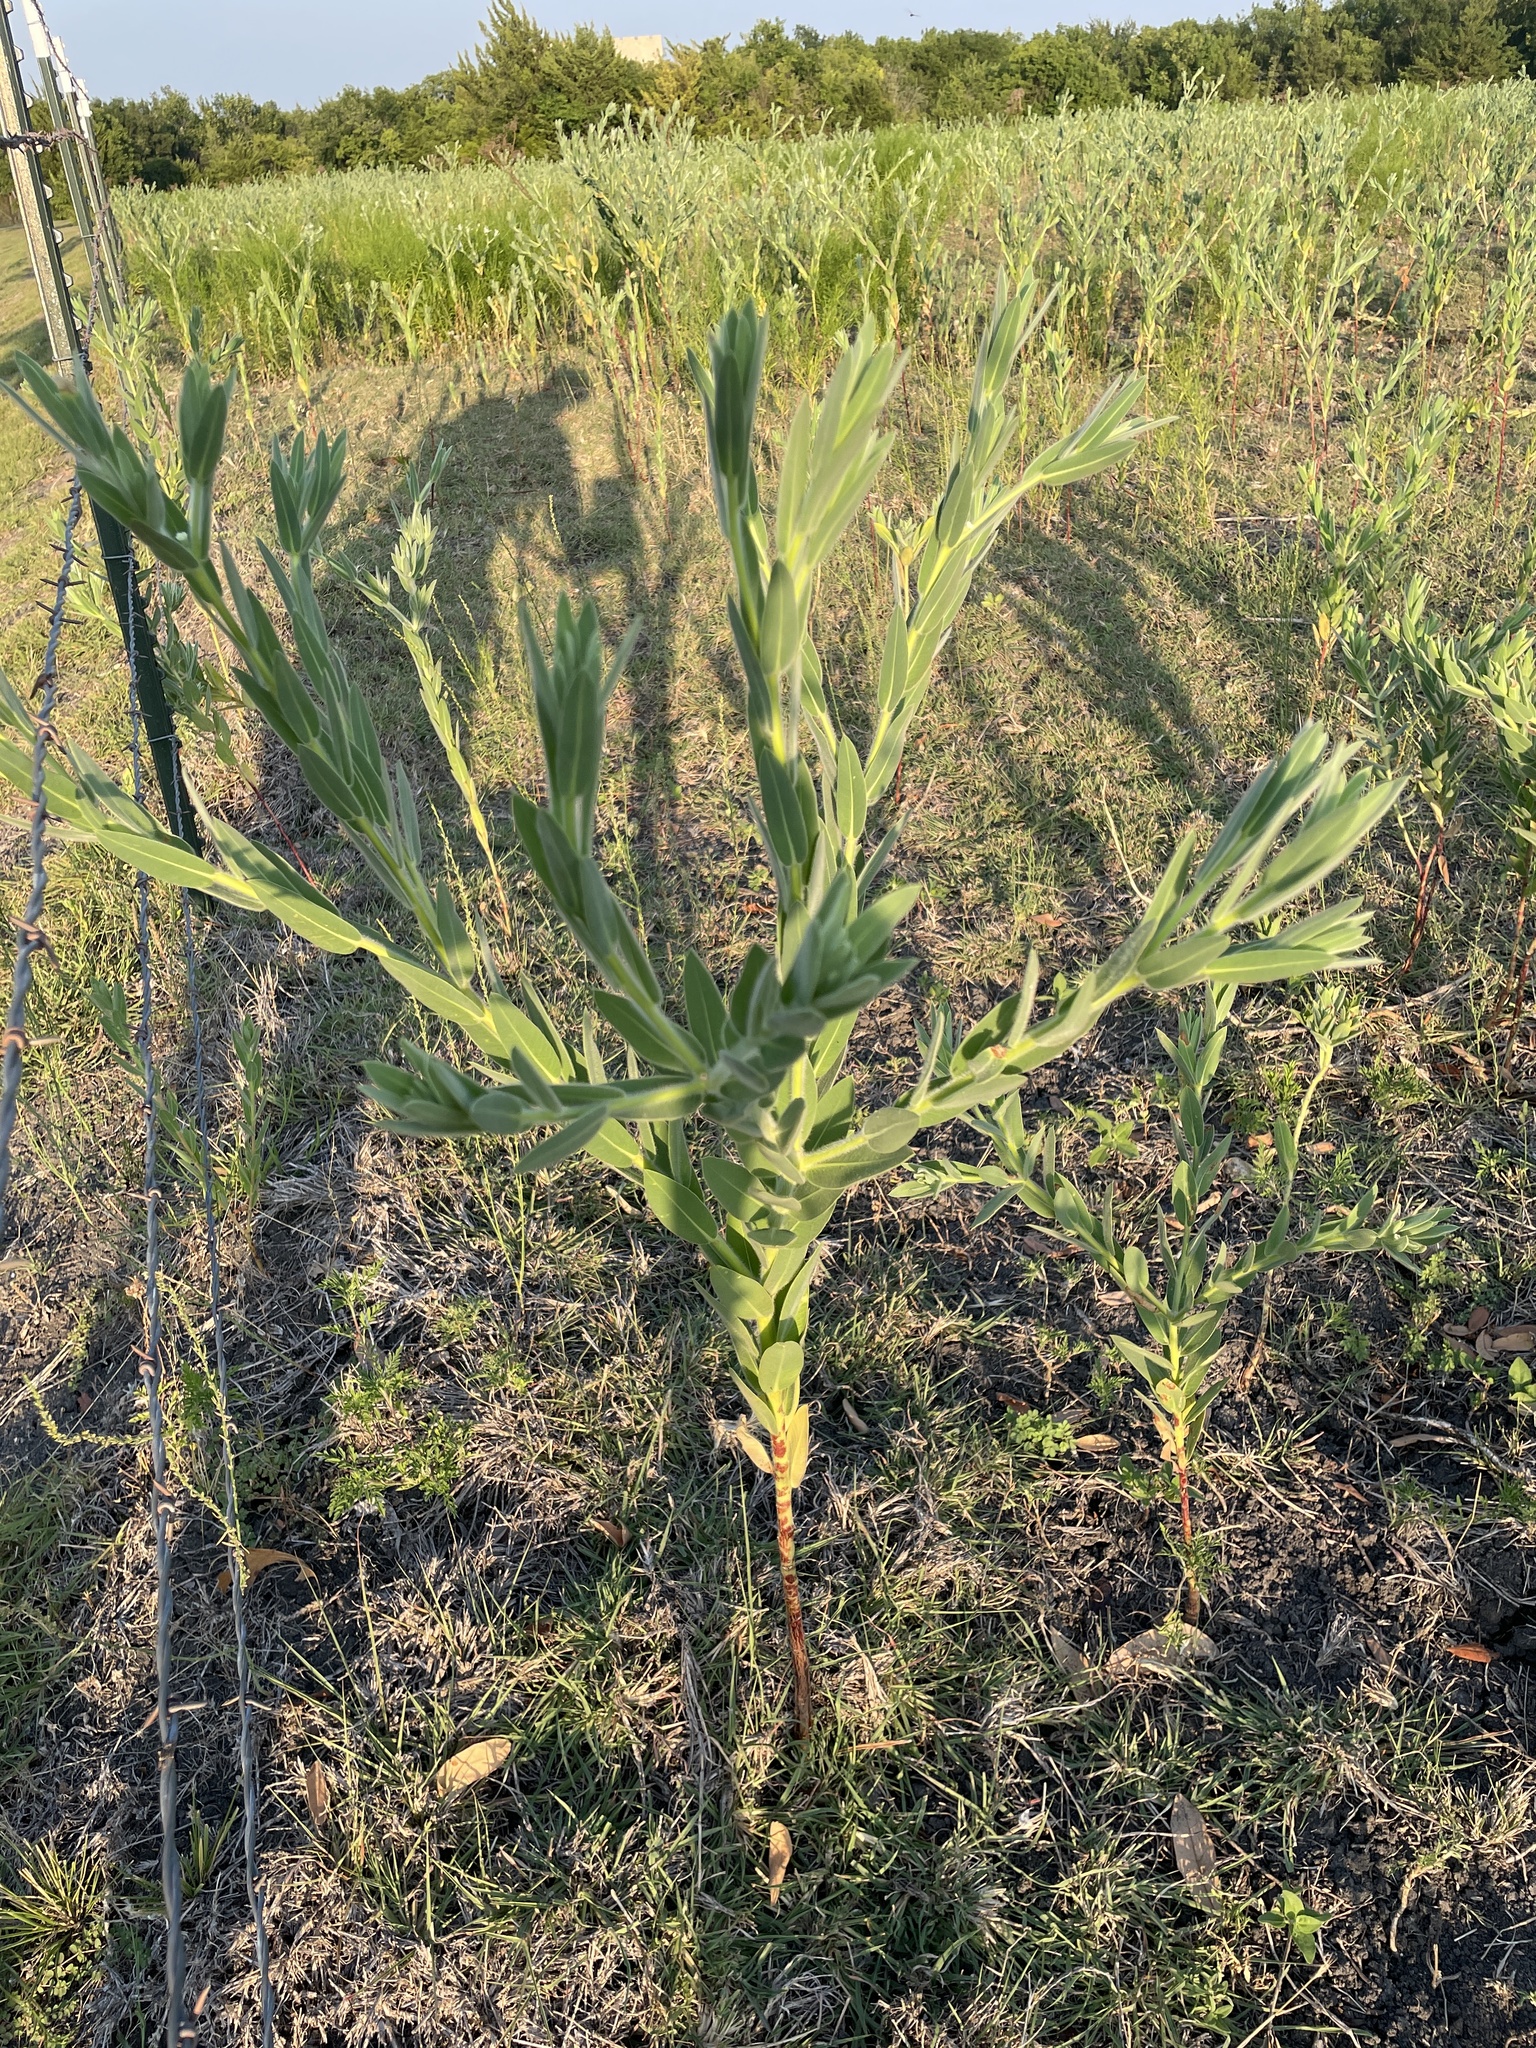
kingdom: Plantae
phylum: Tracheophyta
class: Magnoliopsida
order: Malpighiales
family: Euphorbiaceae
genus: Euphorbia
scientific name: Euphorbia bicolor
